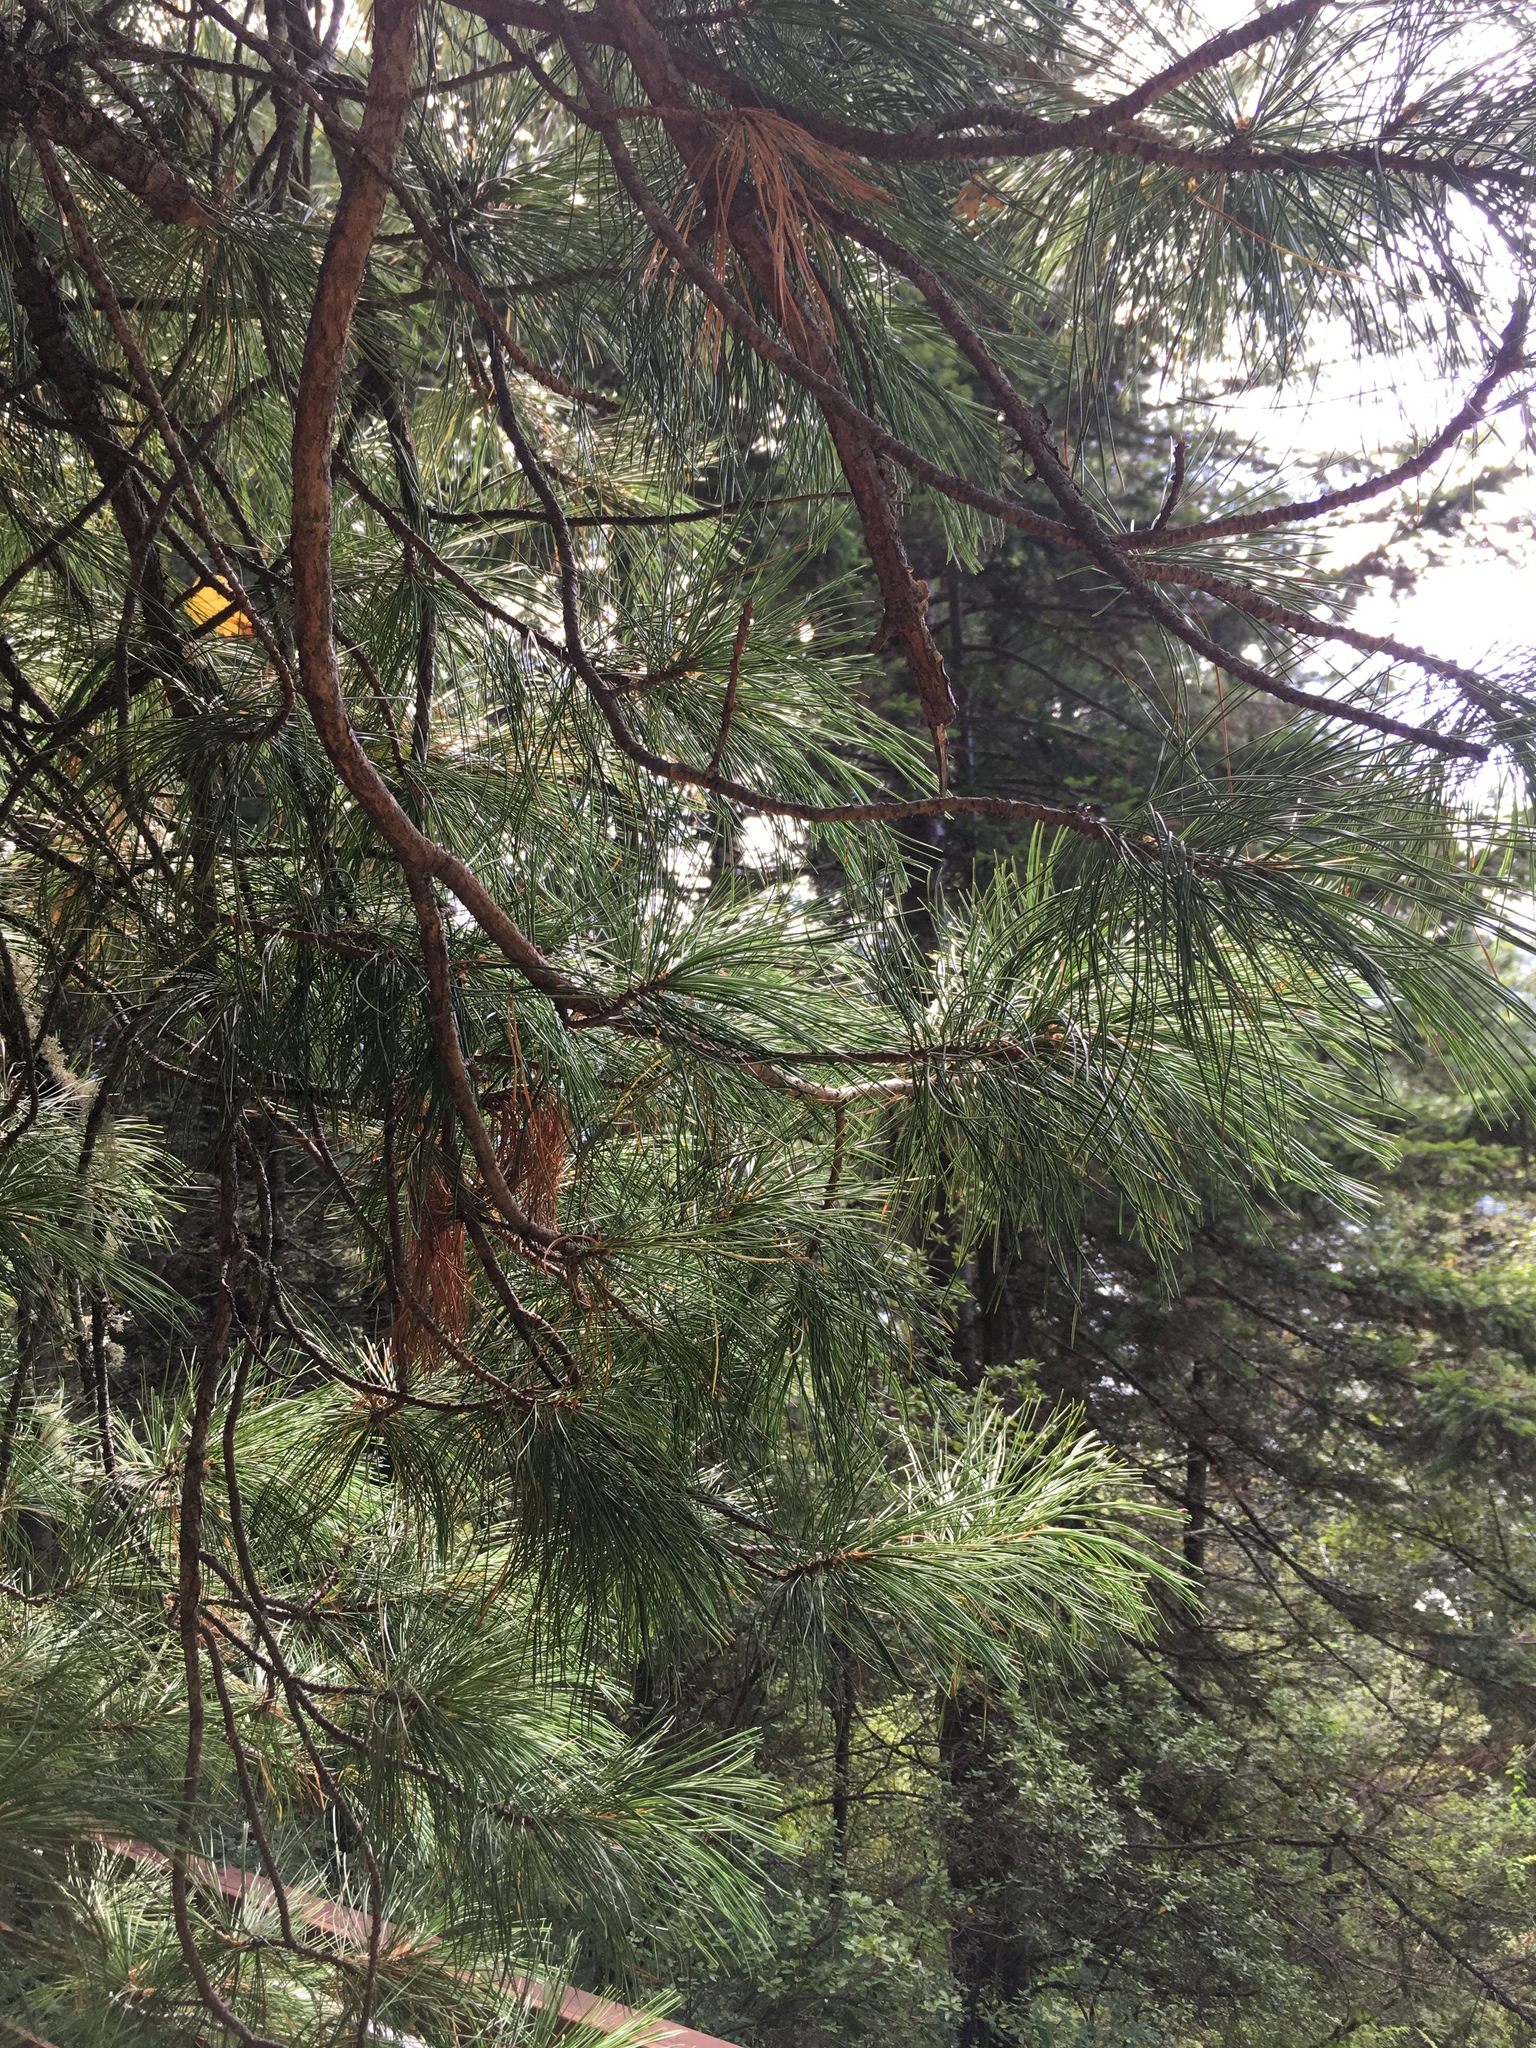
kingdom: Plantae
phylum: Tracheophyta
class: Pinopsida
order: Pinales
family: Pinaceae
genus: Pinus
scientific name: Pinus sibirica
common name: Siberian pine
